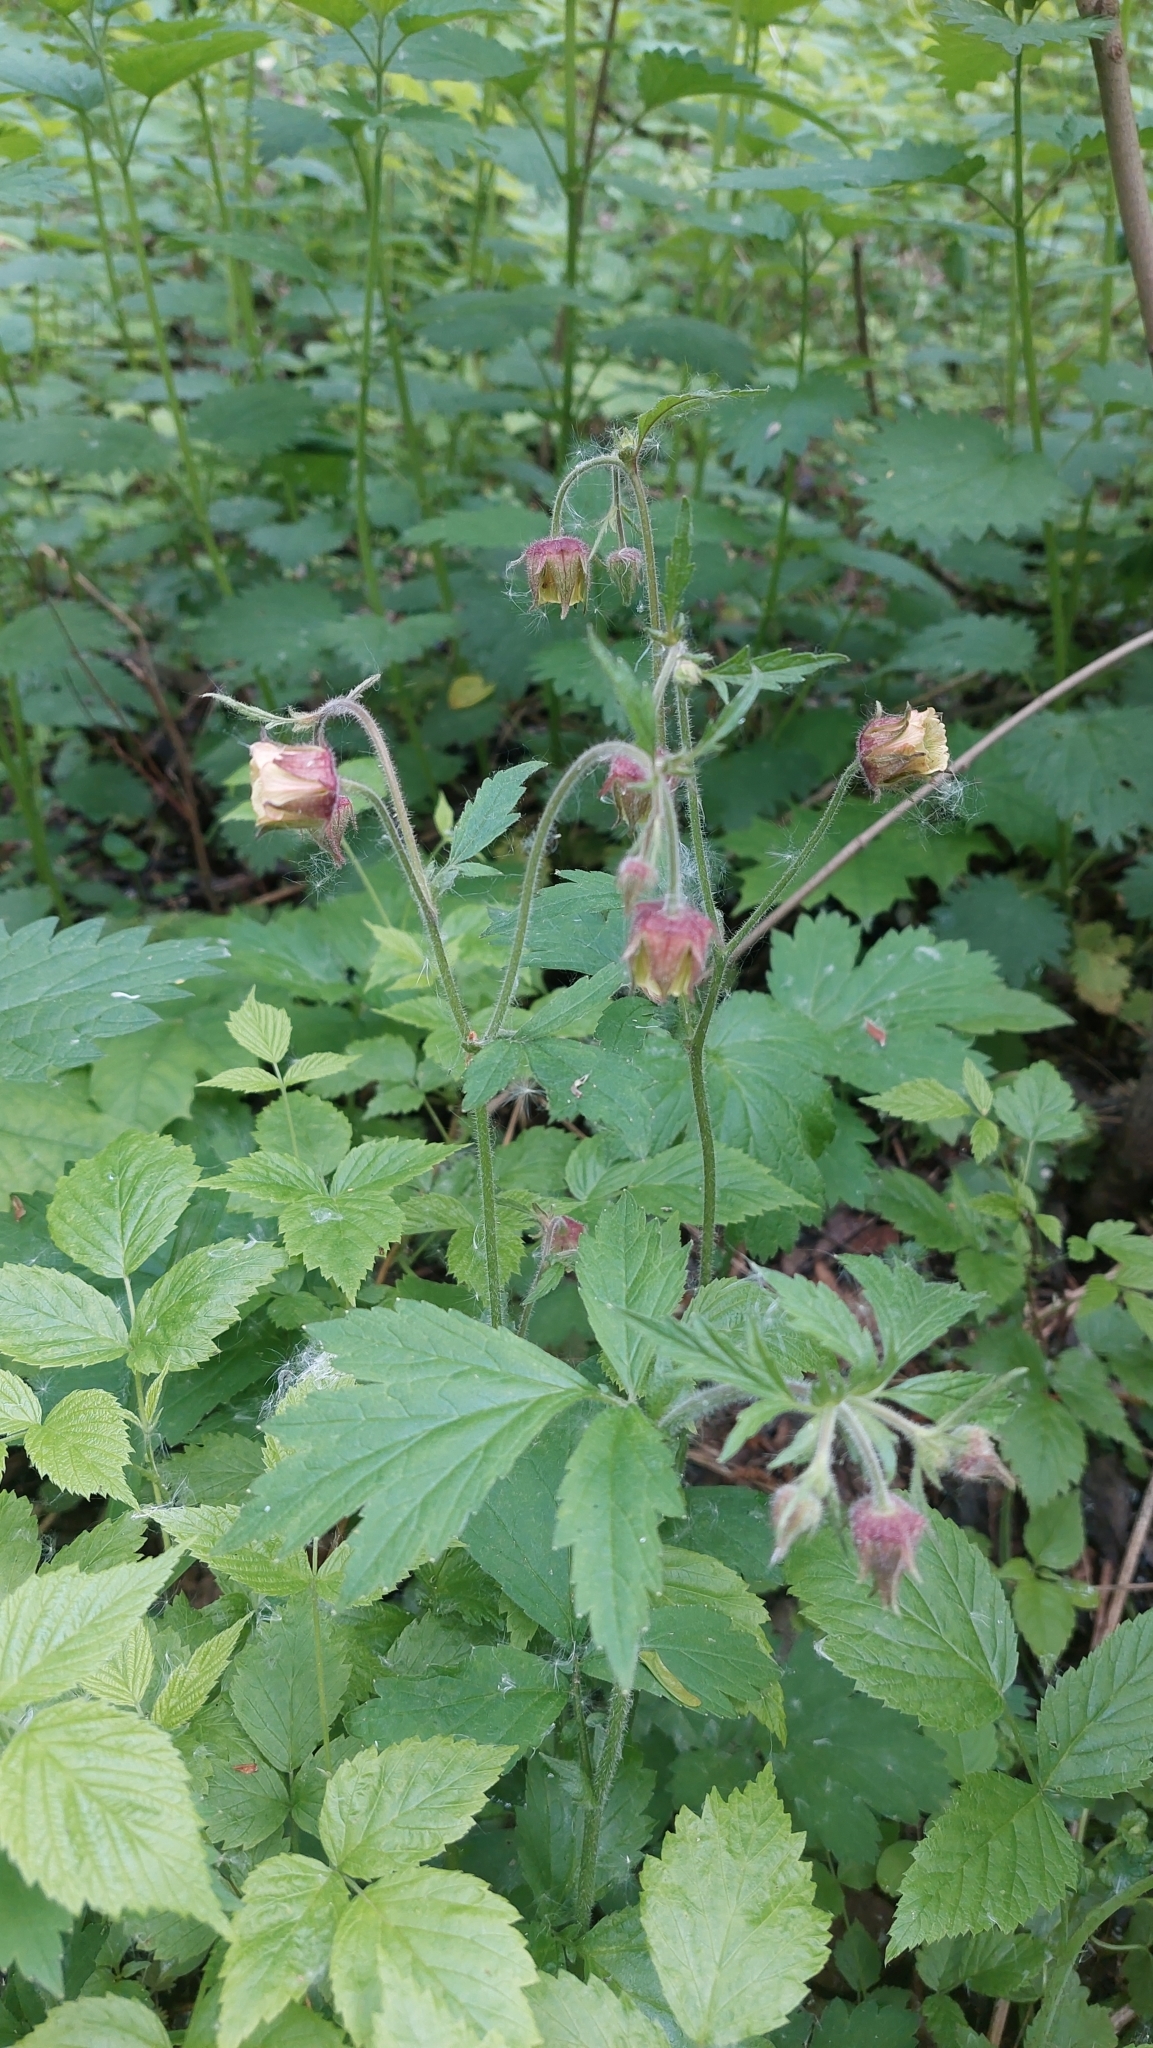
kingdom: Plantae
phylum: Tracheophyta
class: Magnoliopsida
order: Rosales
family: Rosaceae
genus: Geum
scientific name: Geum rivale
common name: Water avens
